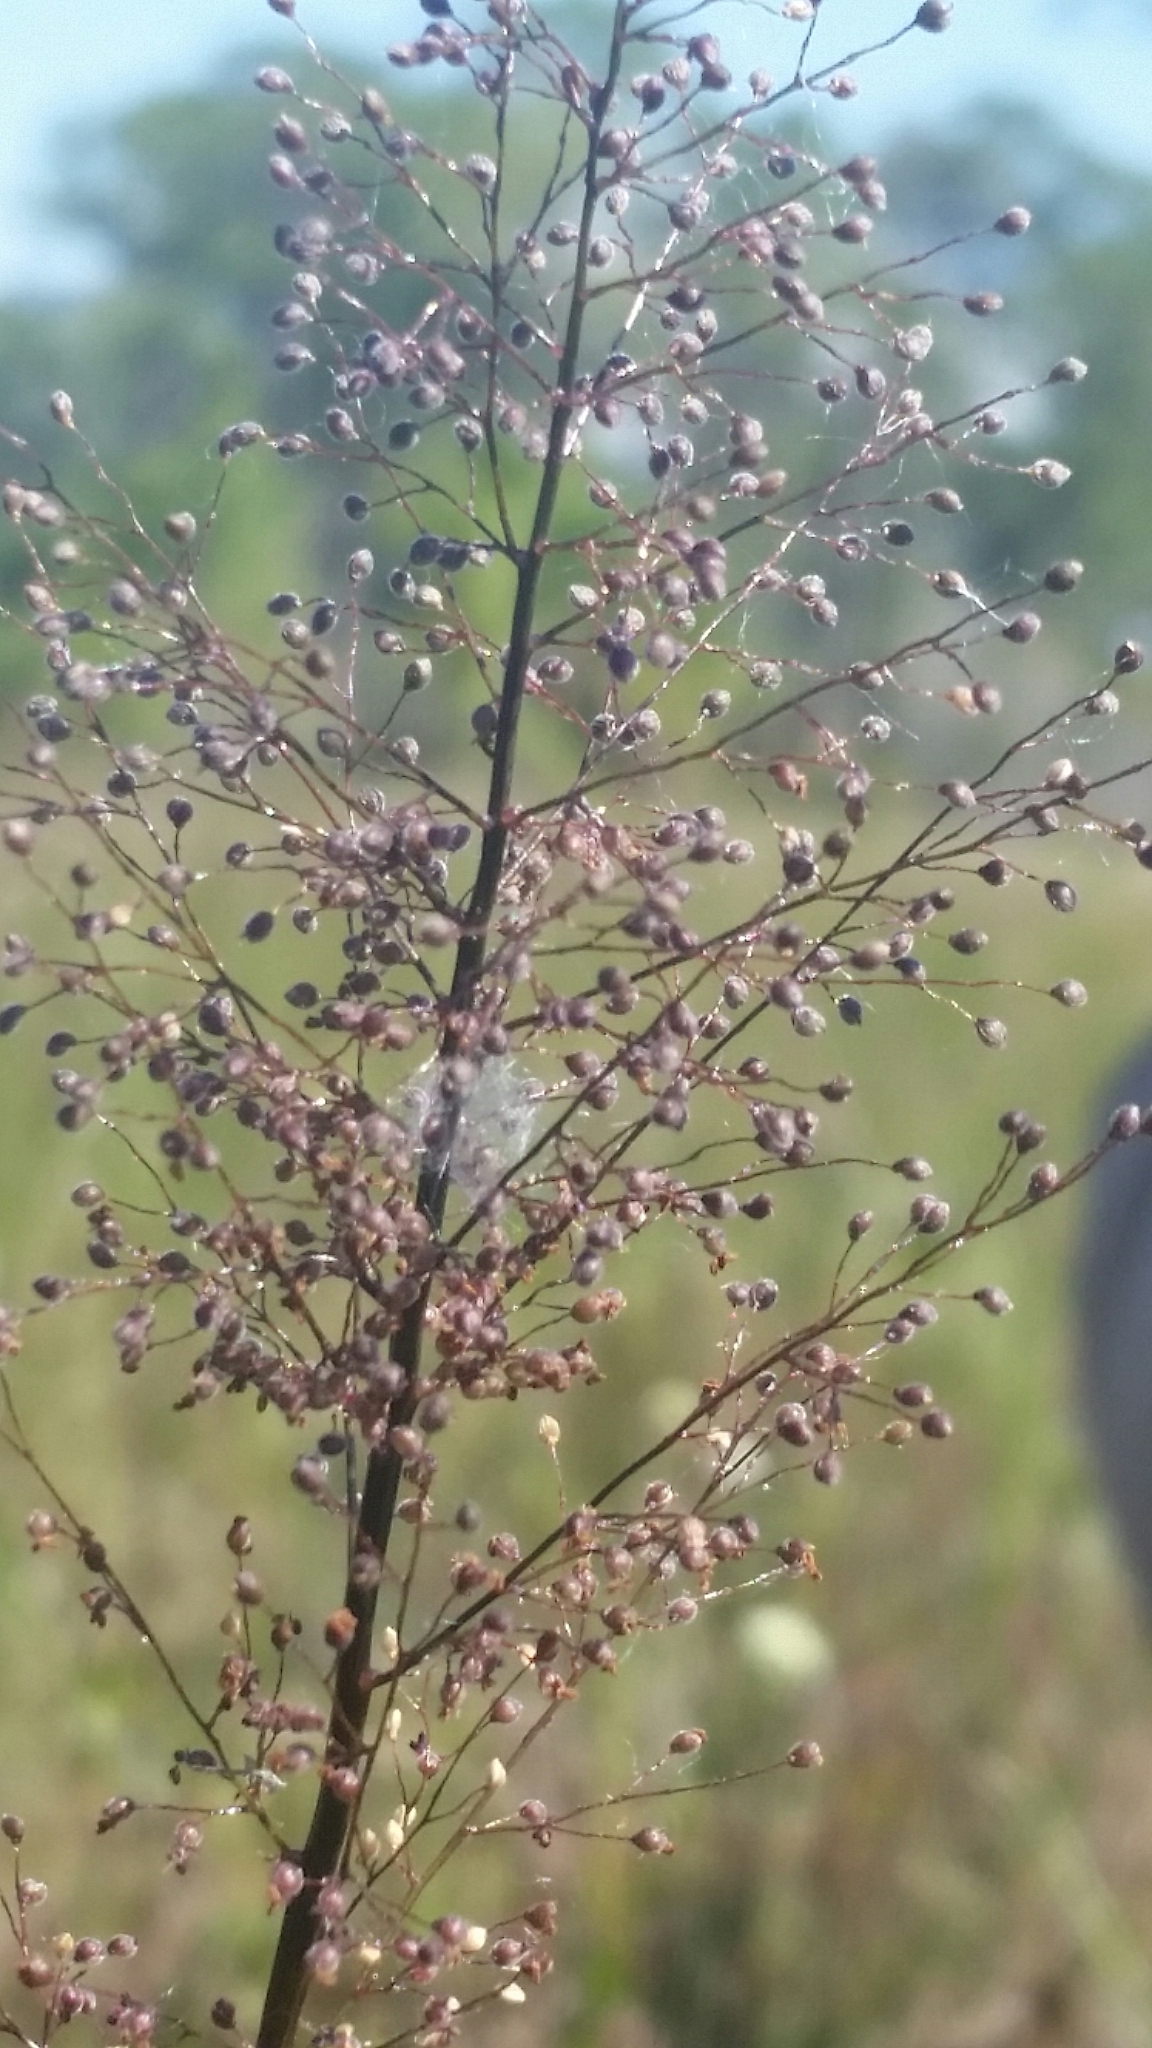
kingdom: Plantae
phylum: Tracheophyta
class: Liliopsida
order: Poales
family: Poaceae
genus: Dichanthelium
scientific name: Dichanthelium erectifolium
